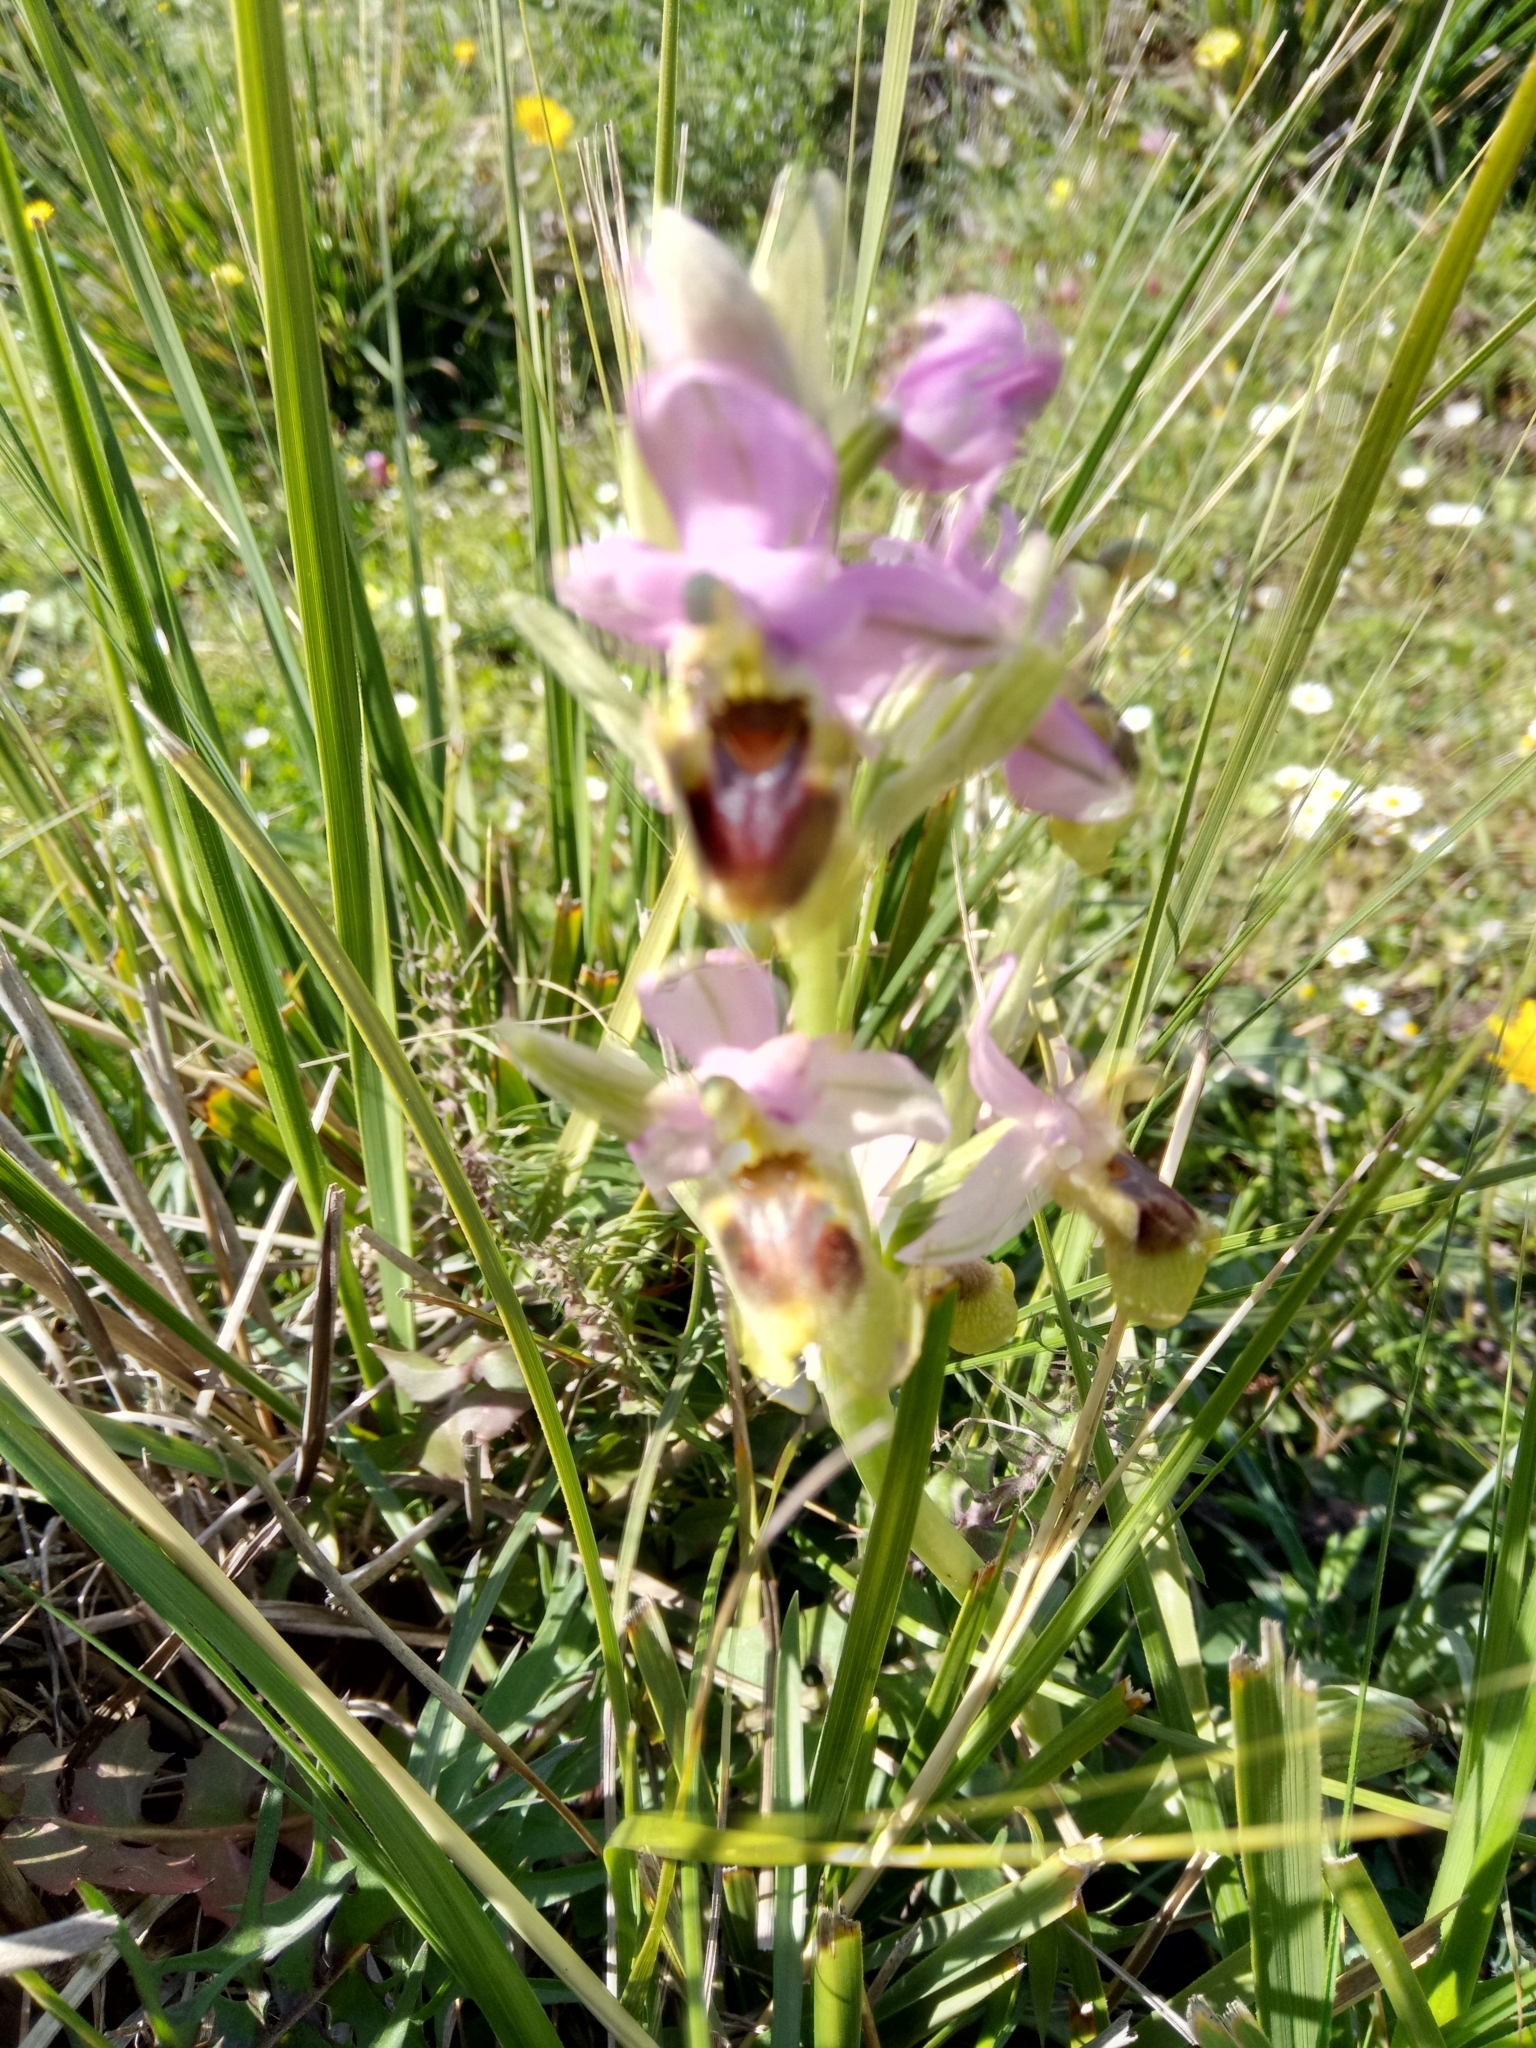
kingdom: Plantae
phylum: Tracheophyta
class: Liliopsida
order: Asparagales
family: Orchidaceae
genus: Ophrys
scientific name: Ophrys tenthredinifera
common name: Sawfly orchid
